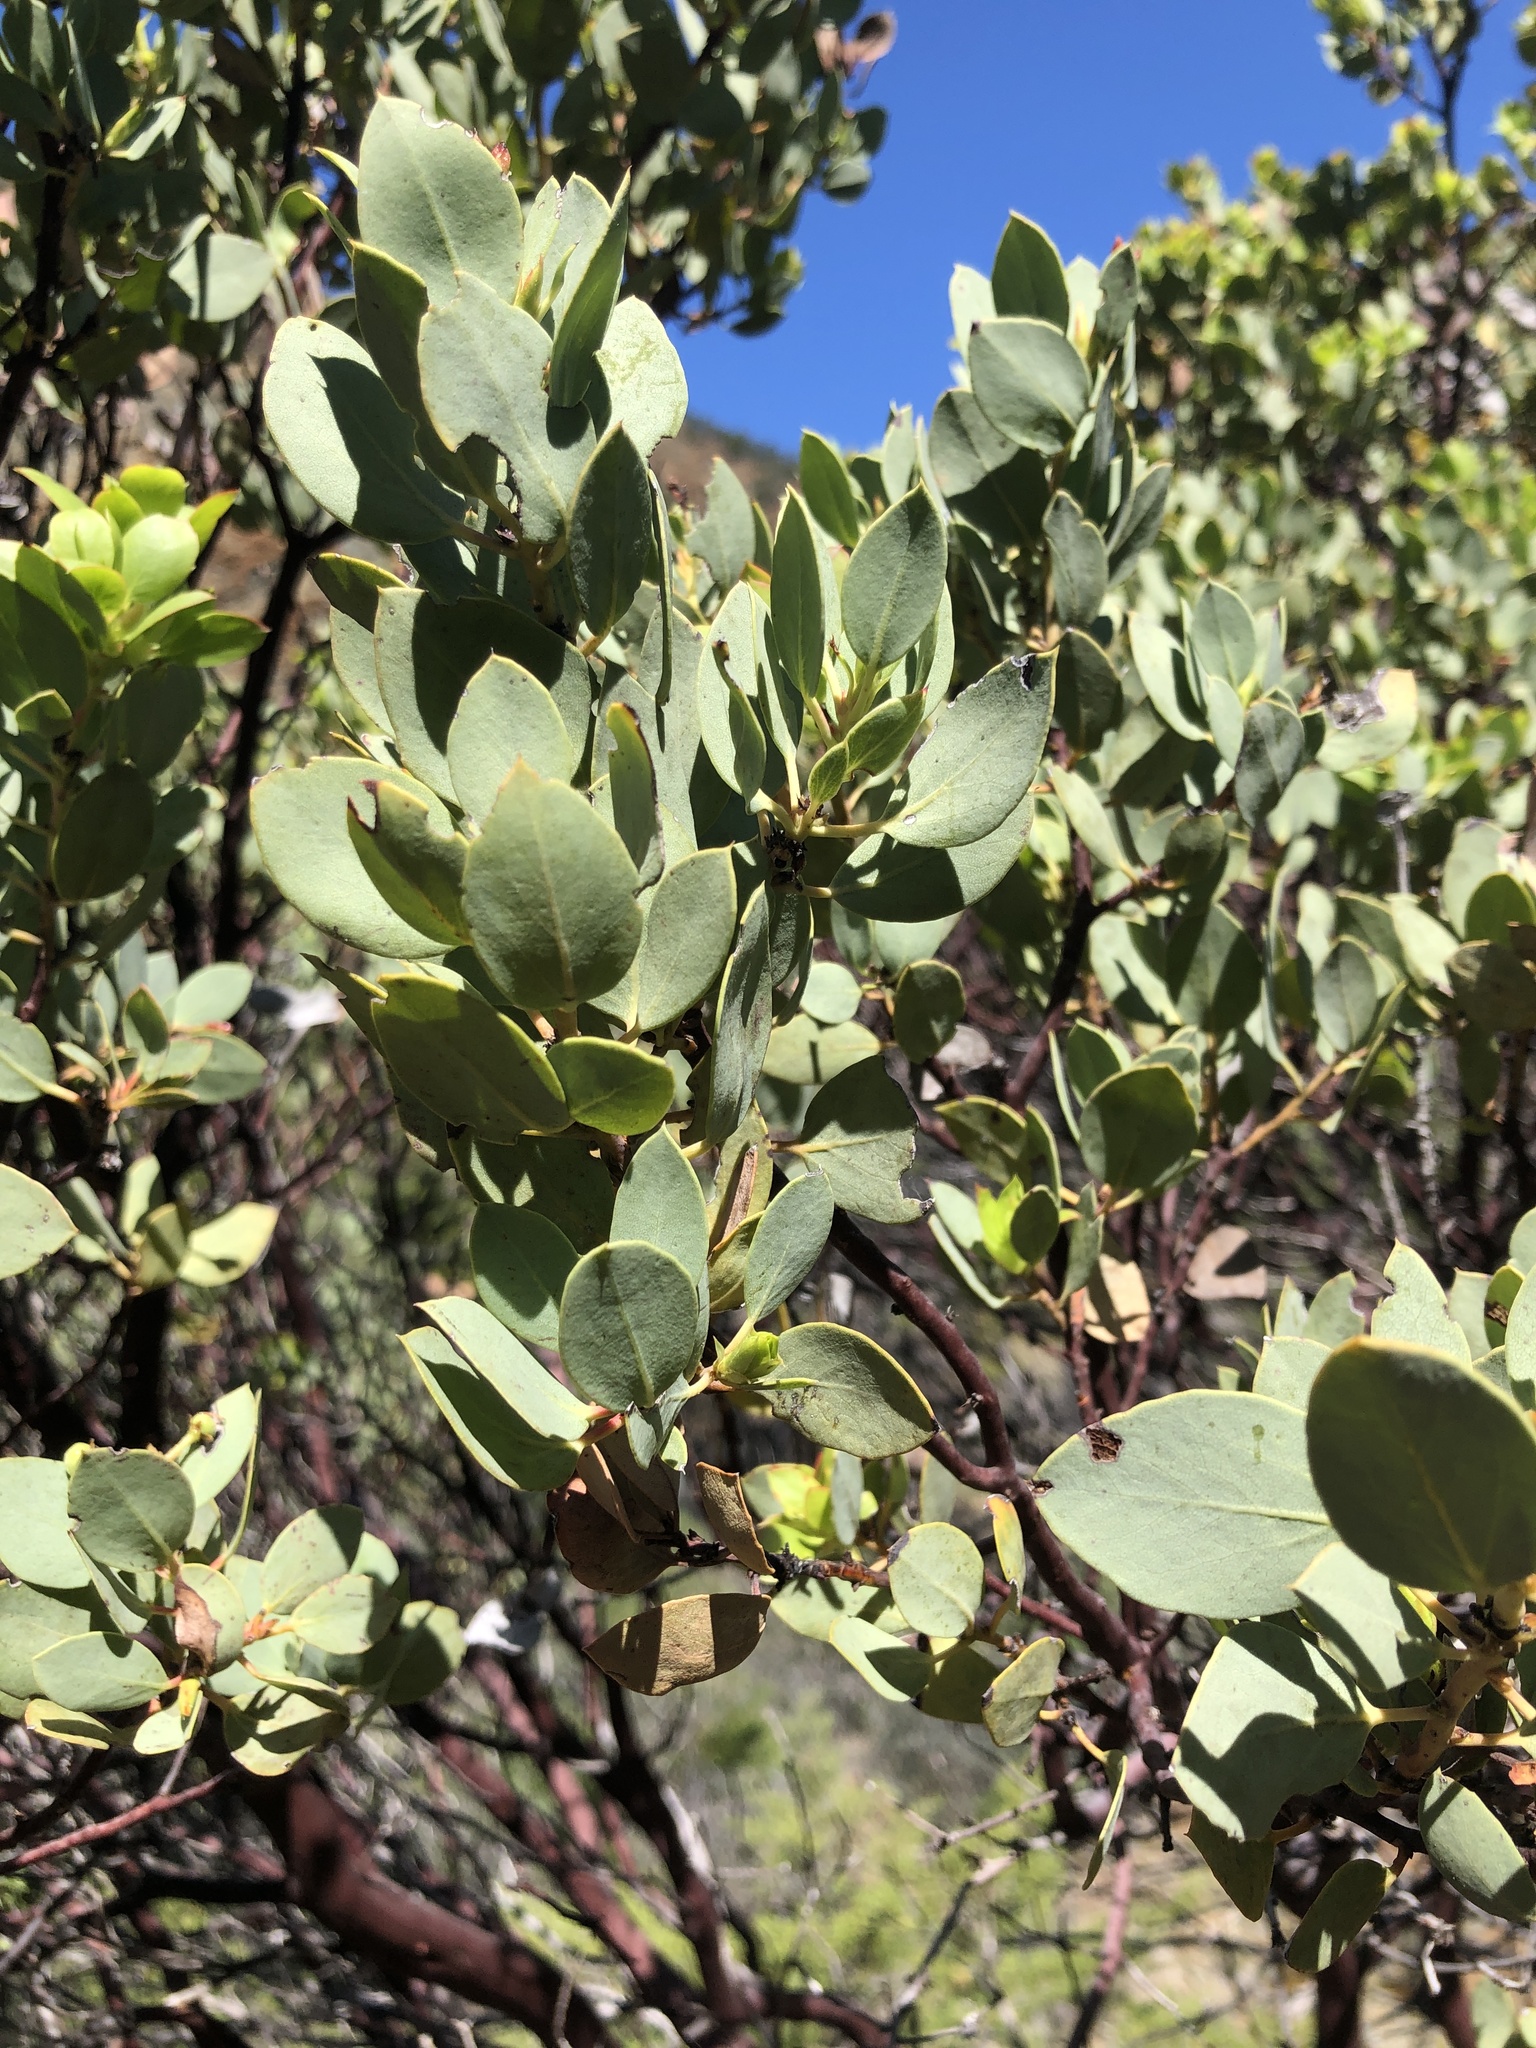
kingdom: Plantae
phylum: Tracheophyta
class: Magnoliopsida
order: Ericales
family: Ericaceae
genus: Arctostaphylos
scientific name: Arctostaphylos viscida
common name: White-leaf manzanita
